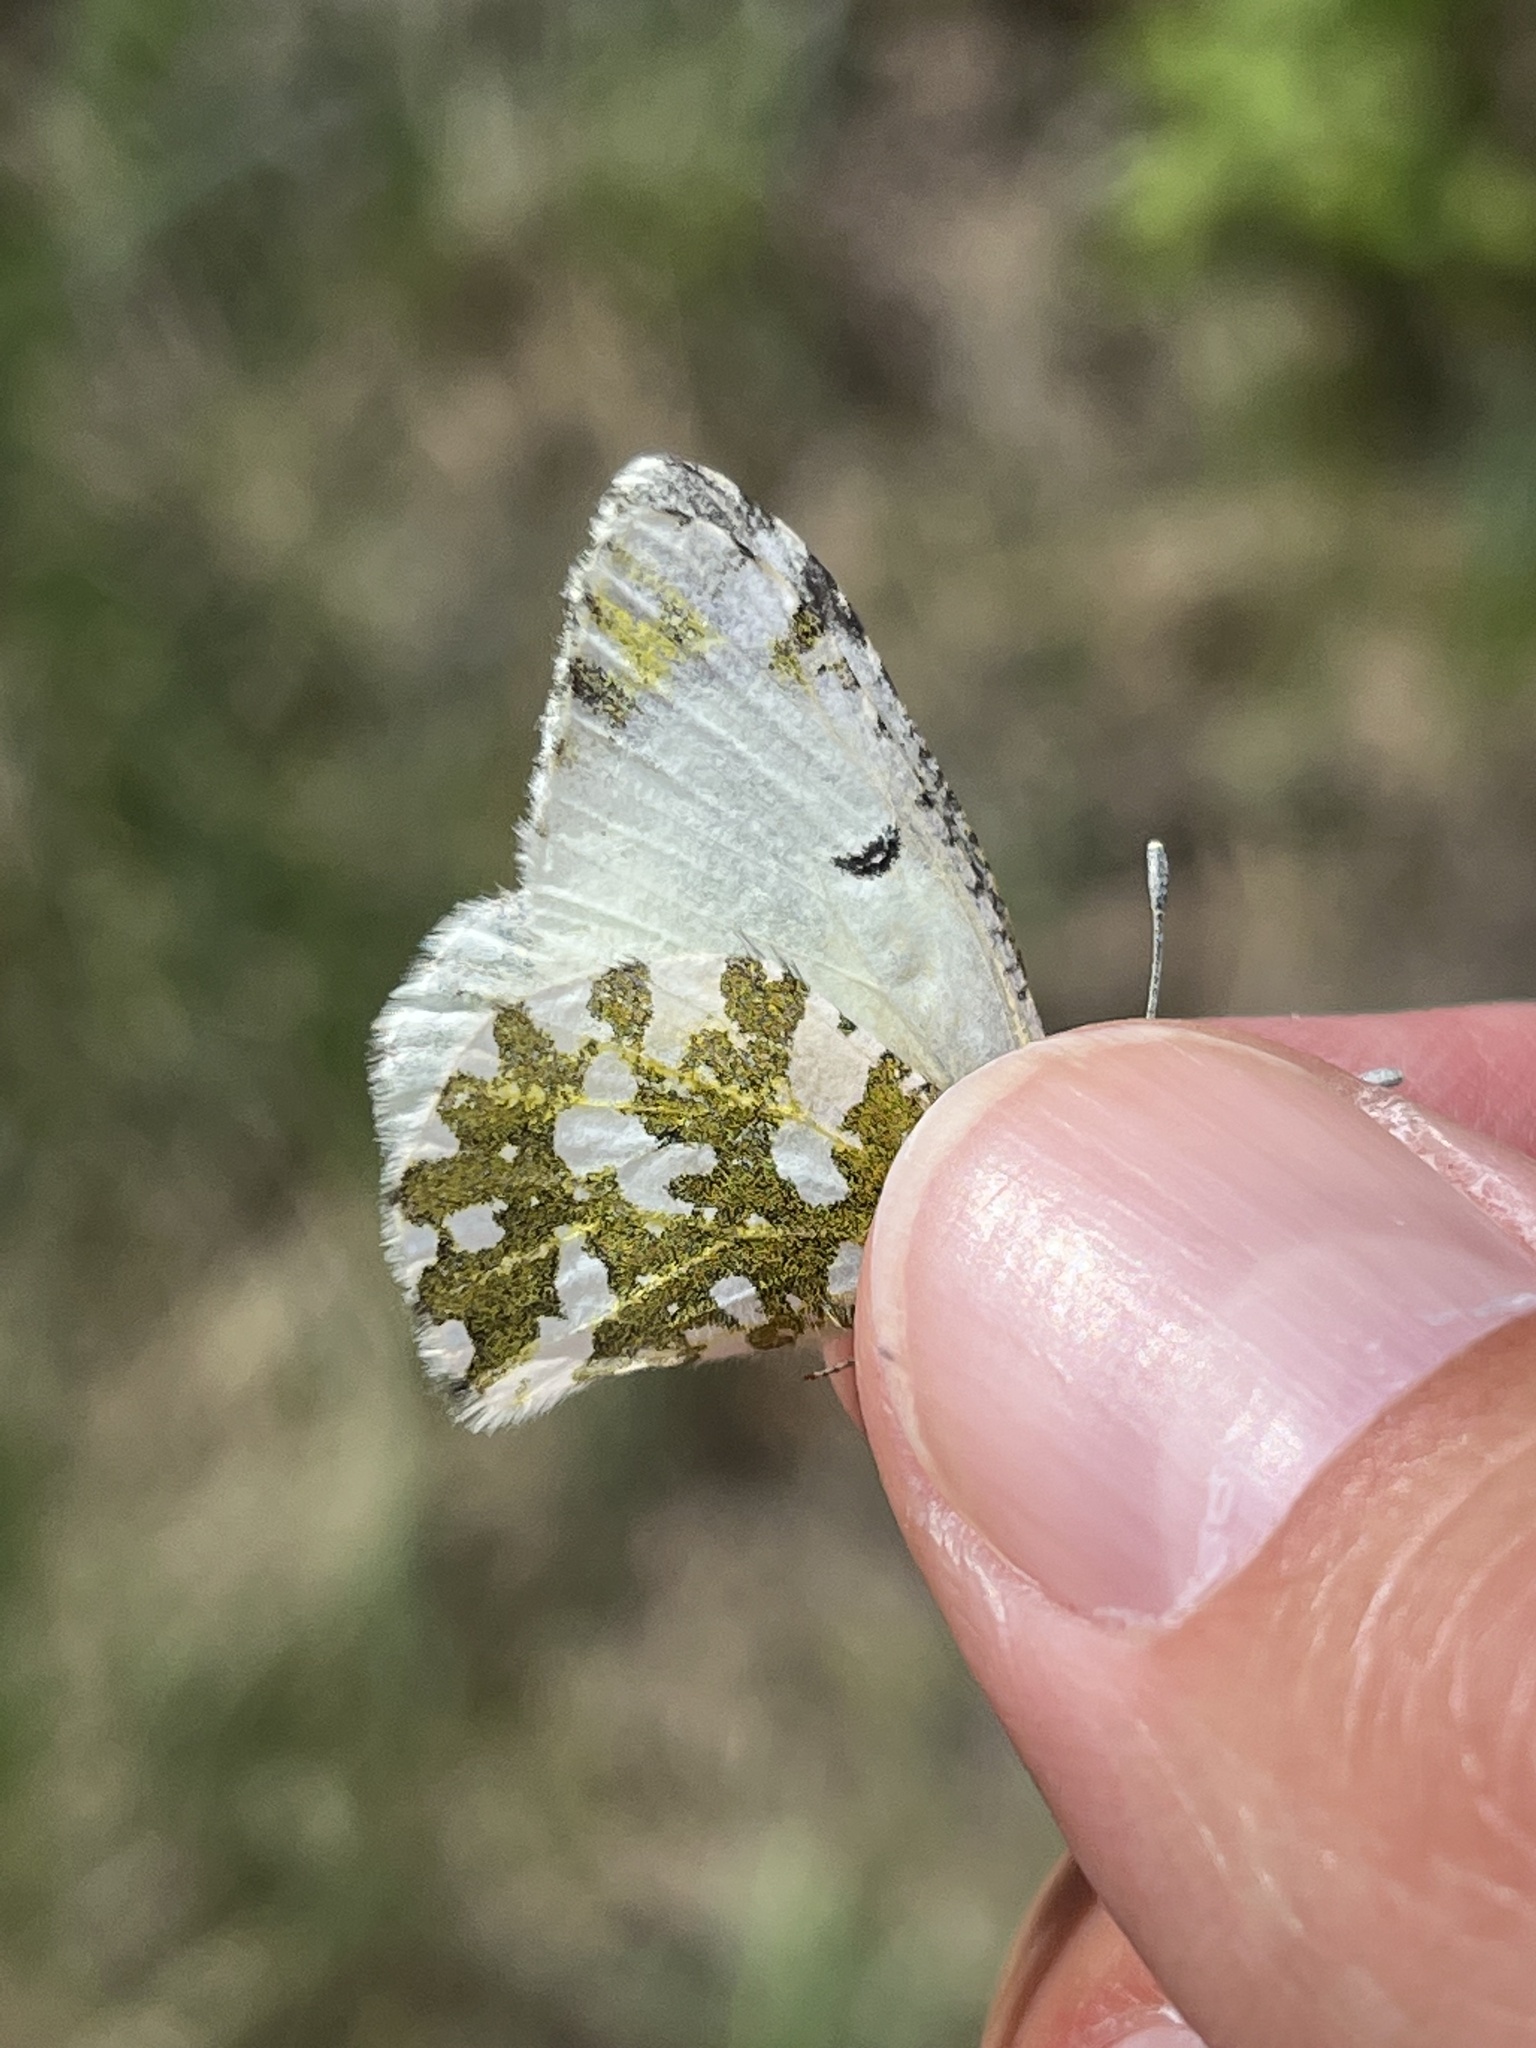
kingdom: Animalia
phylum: Arthropoda
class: Insecta
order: Lepidoptera
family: Pieridae
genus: Euchloe
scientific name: Euchloe ausonides
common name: Creamy marblewing
